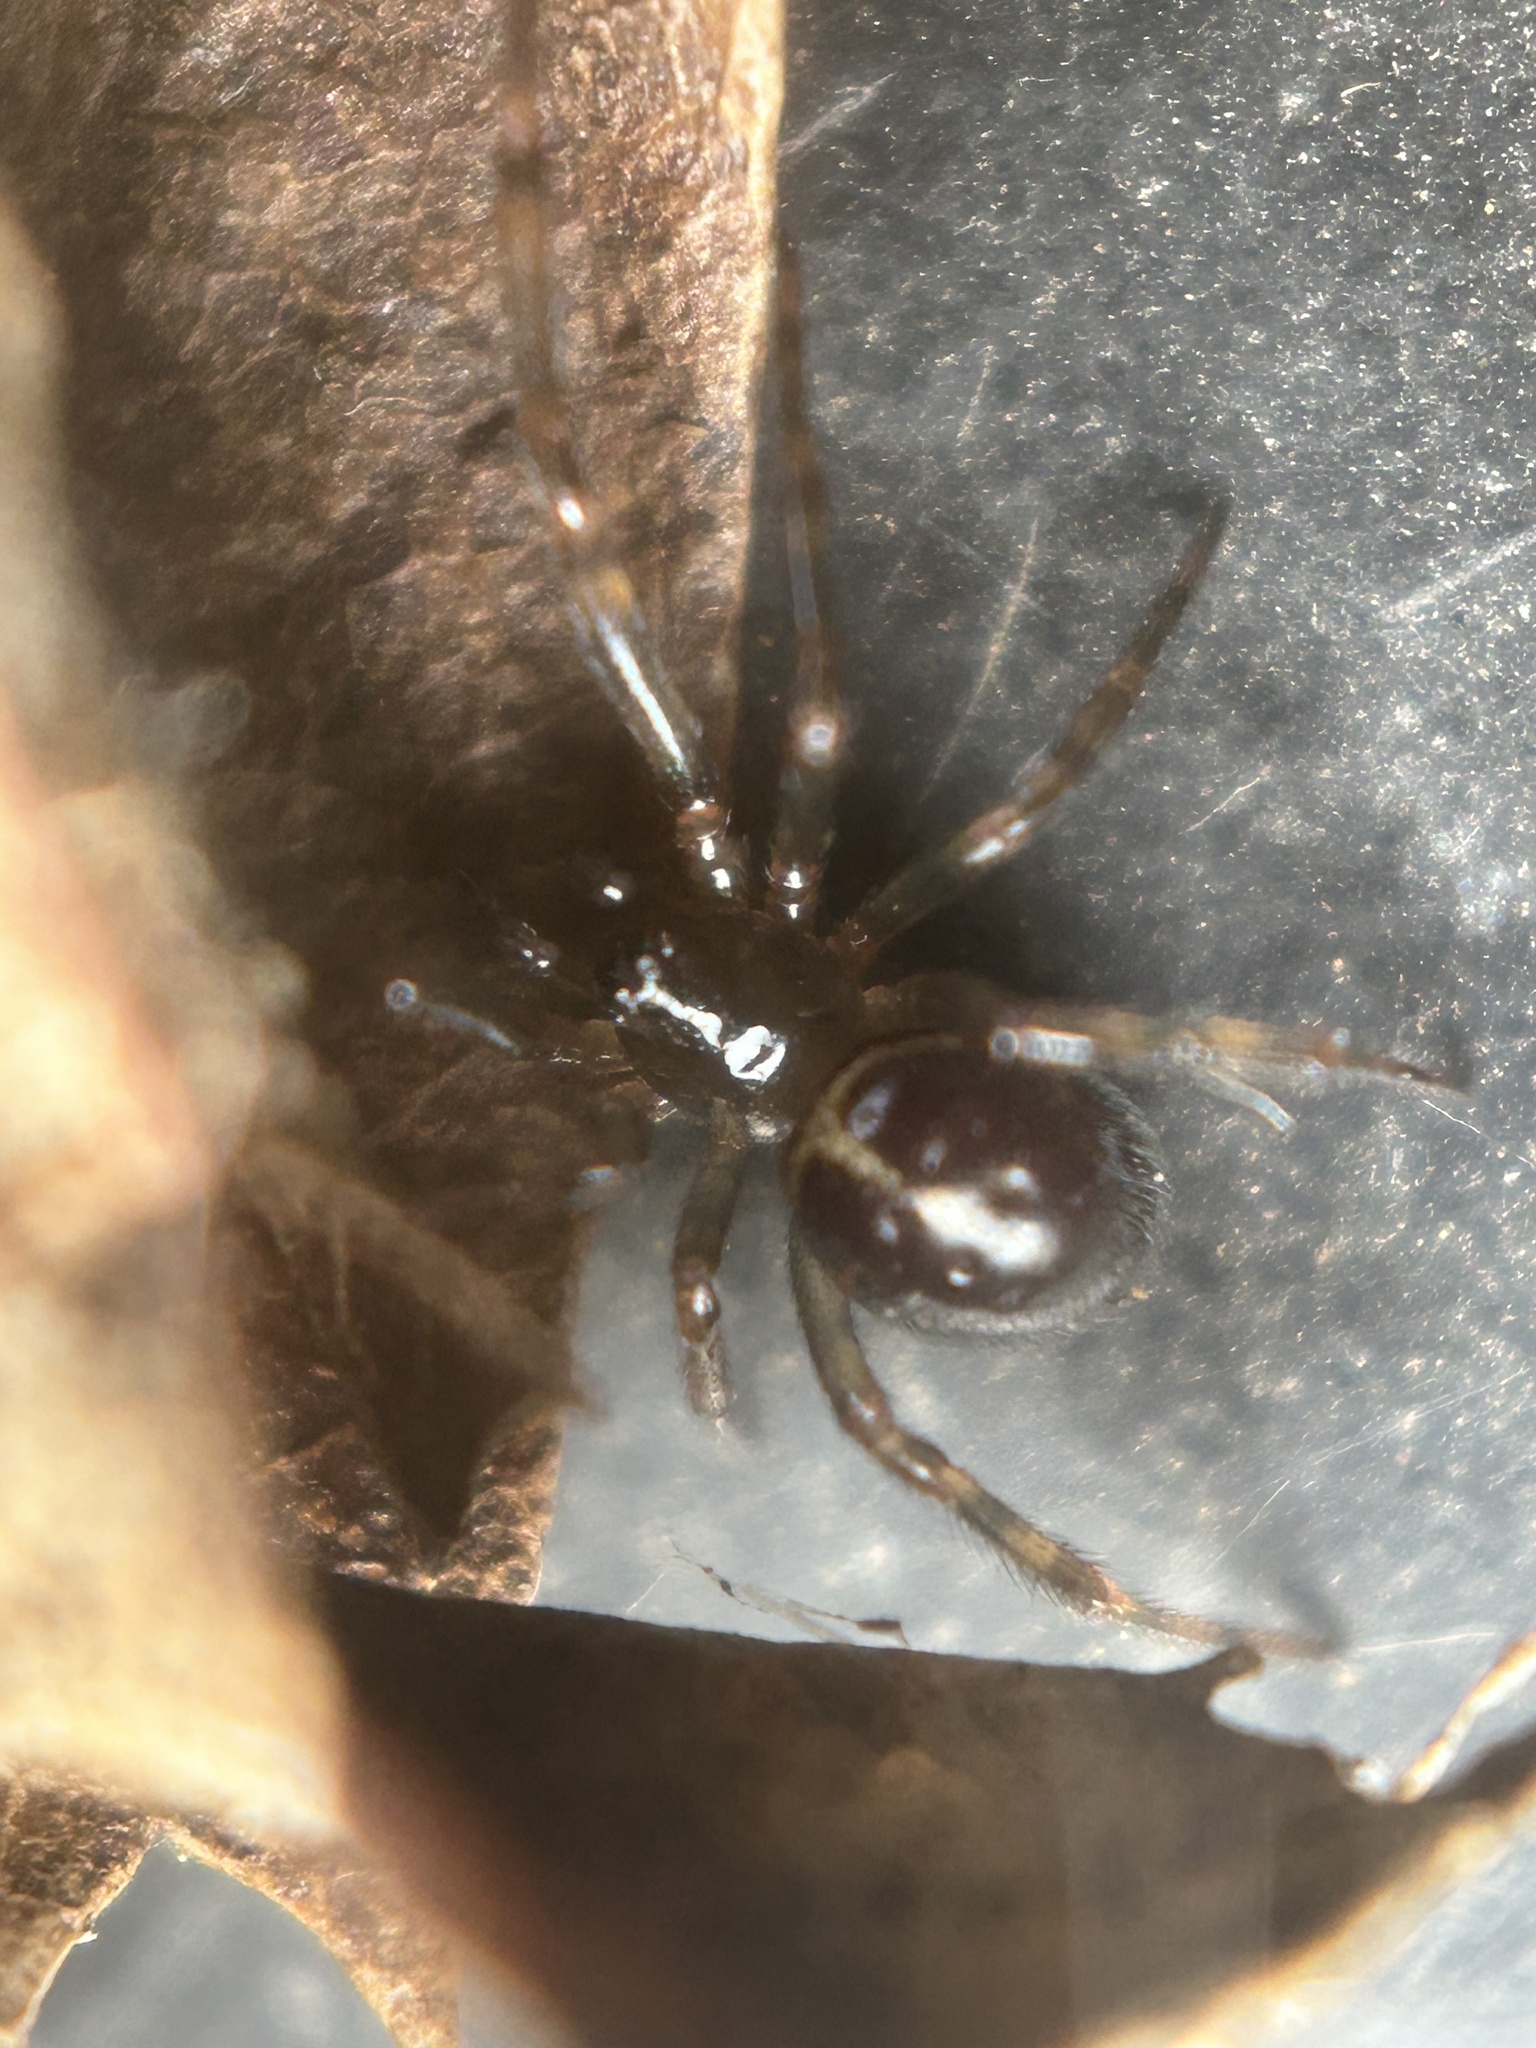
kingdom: Animalia
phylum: Arthropoda
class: Arachnida
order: Araneae
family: Theridiidae
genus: Steatoda
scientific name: Steatoda borealis
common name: Boreal combfoot
